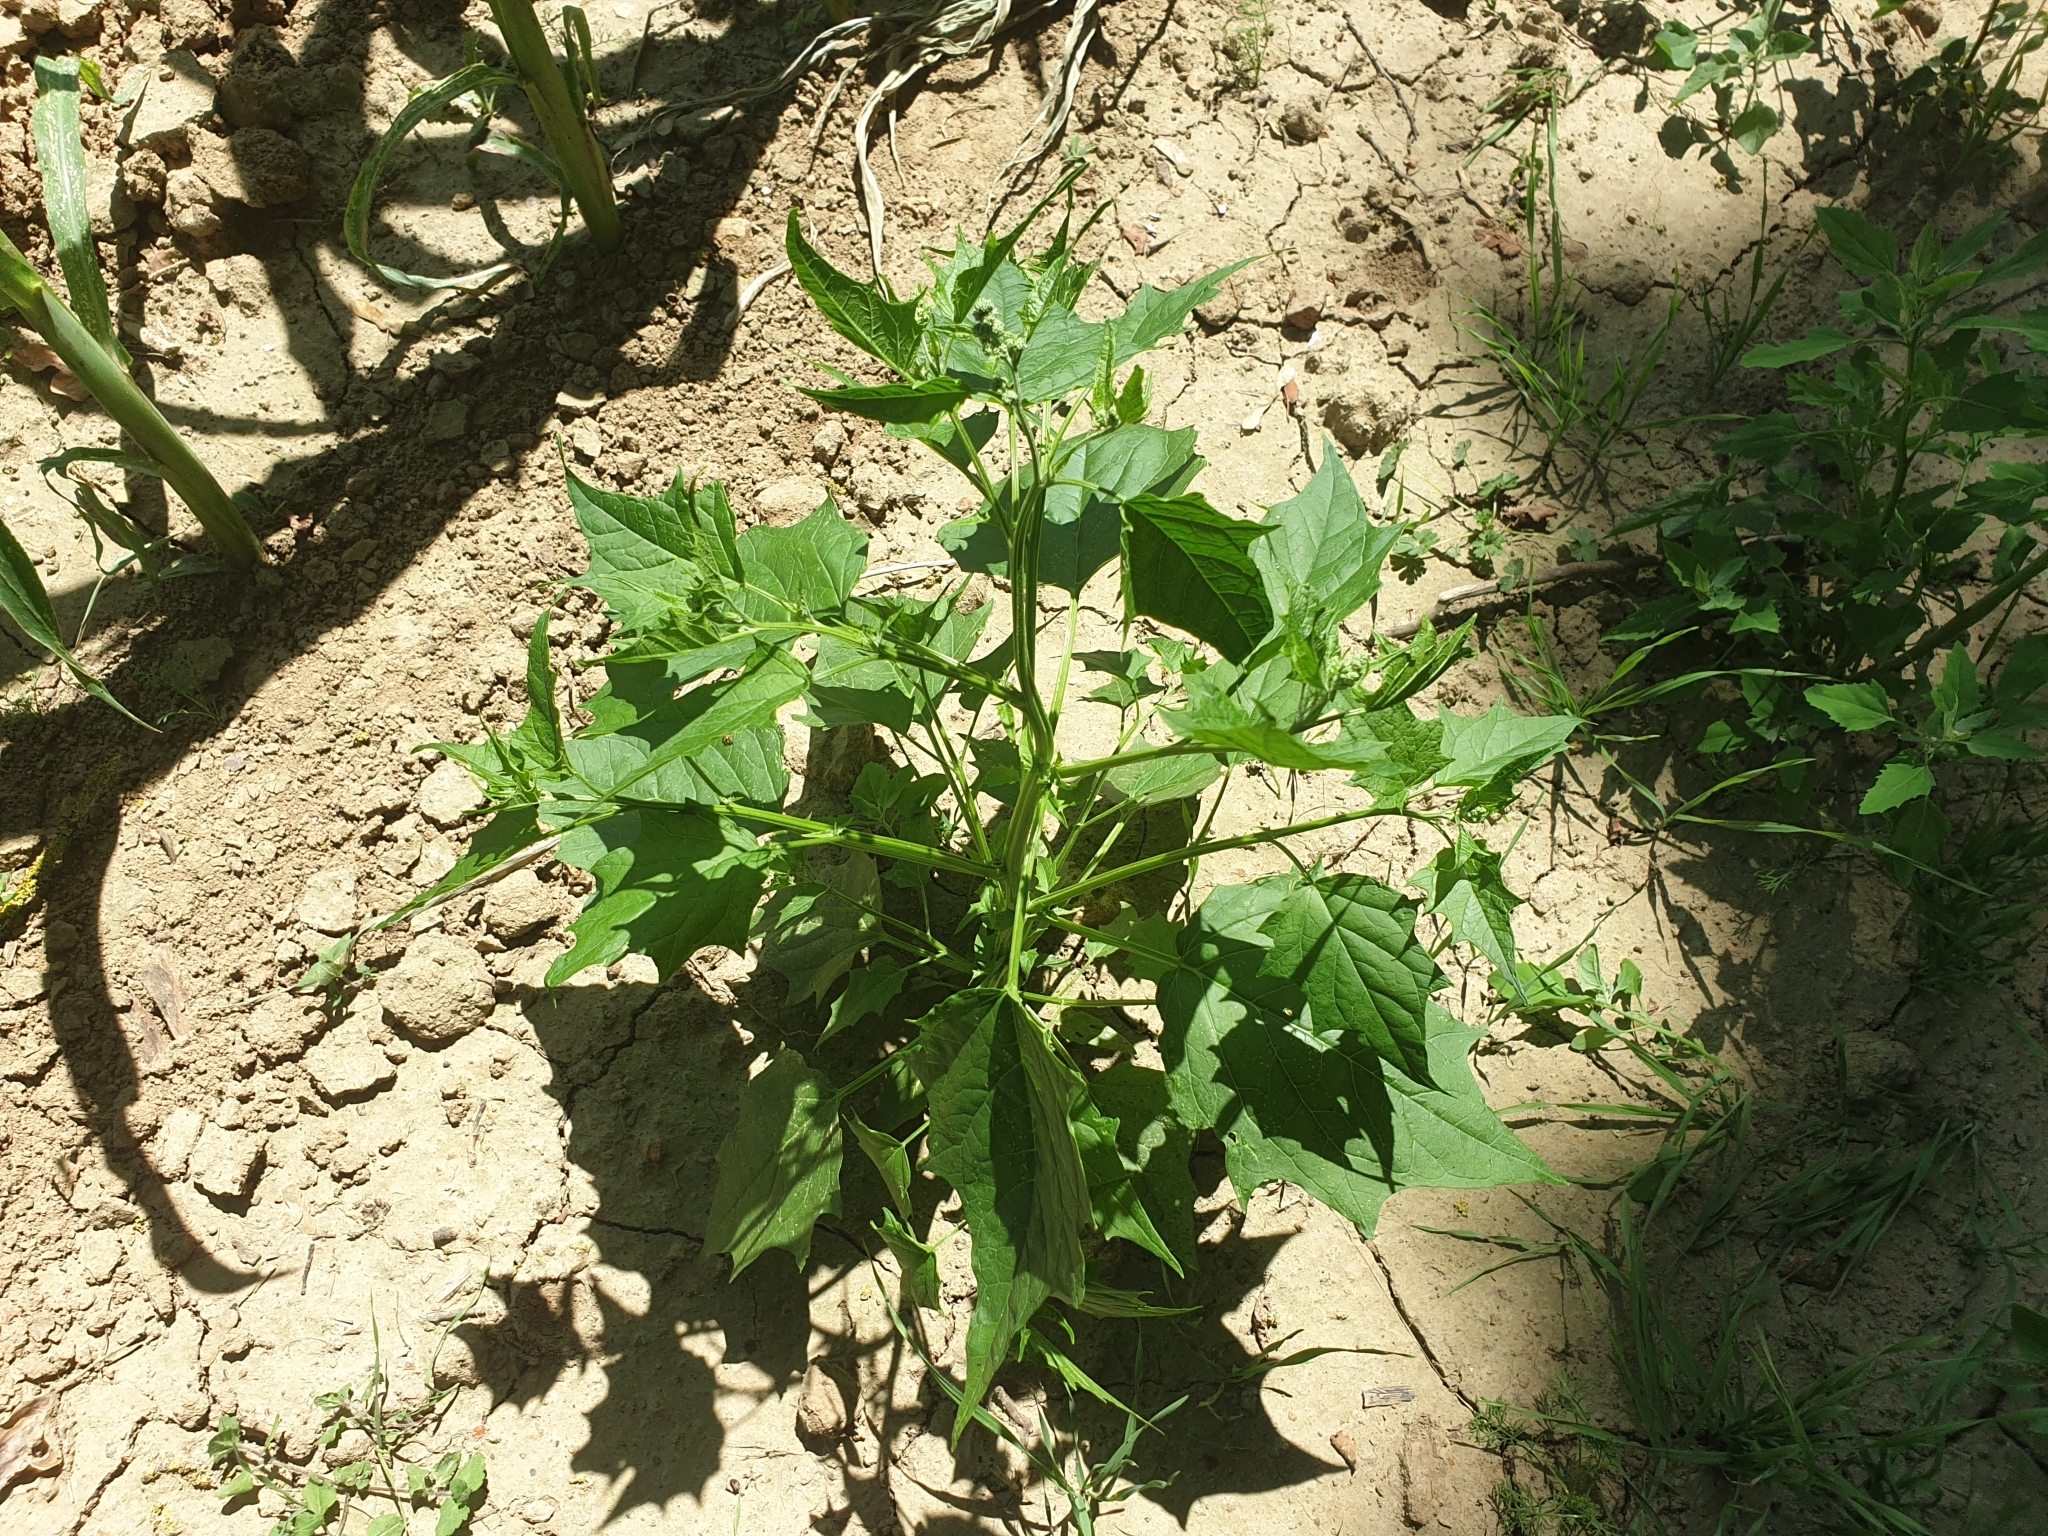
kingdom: Plantae
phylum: Tracheophyta
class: Magnoliopsida
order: Caryophyllales
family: Amaranthaceae
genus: Chenopodiastrum
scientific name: Chenopodiastrum hybridum
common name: Mapleleaf goosefoot
